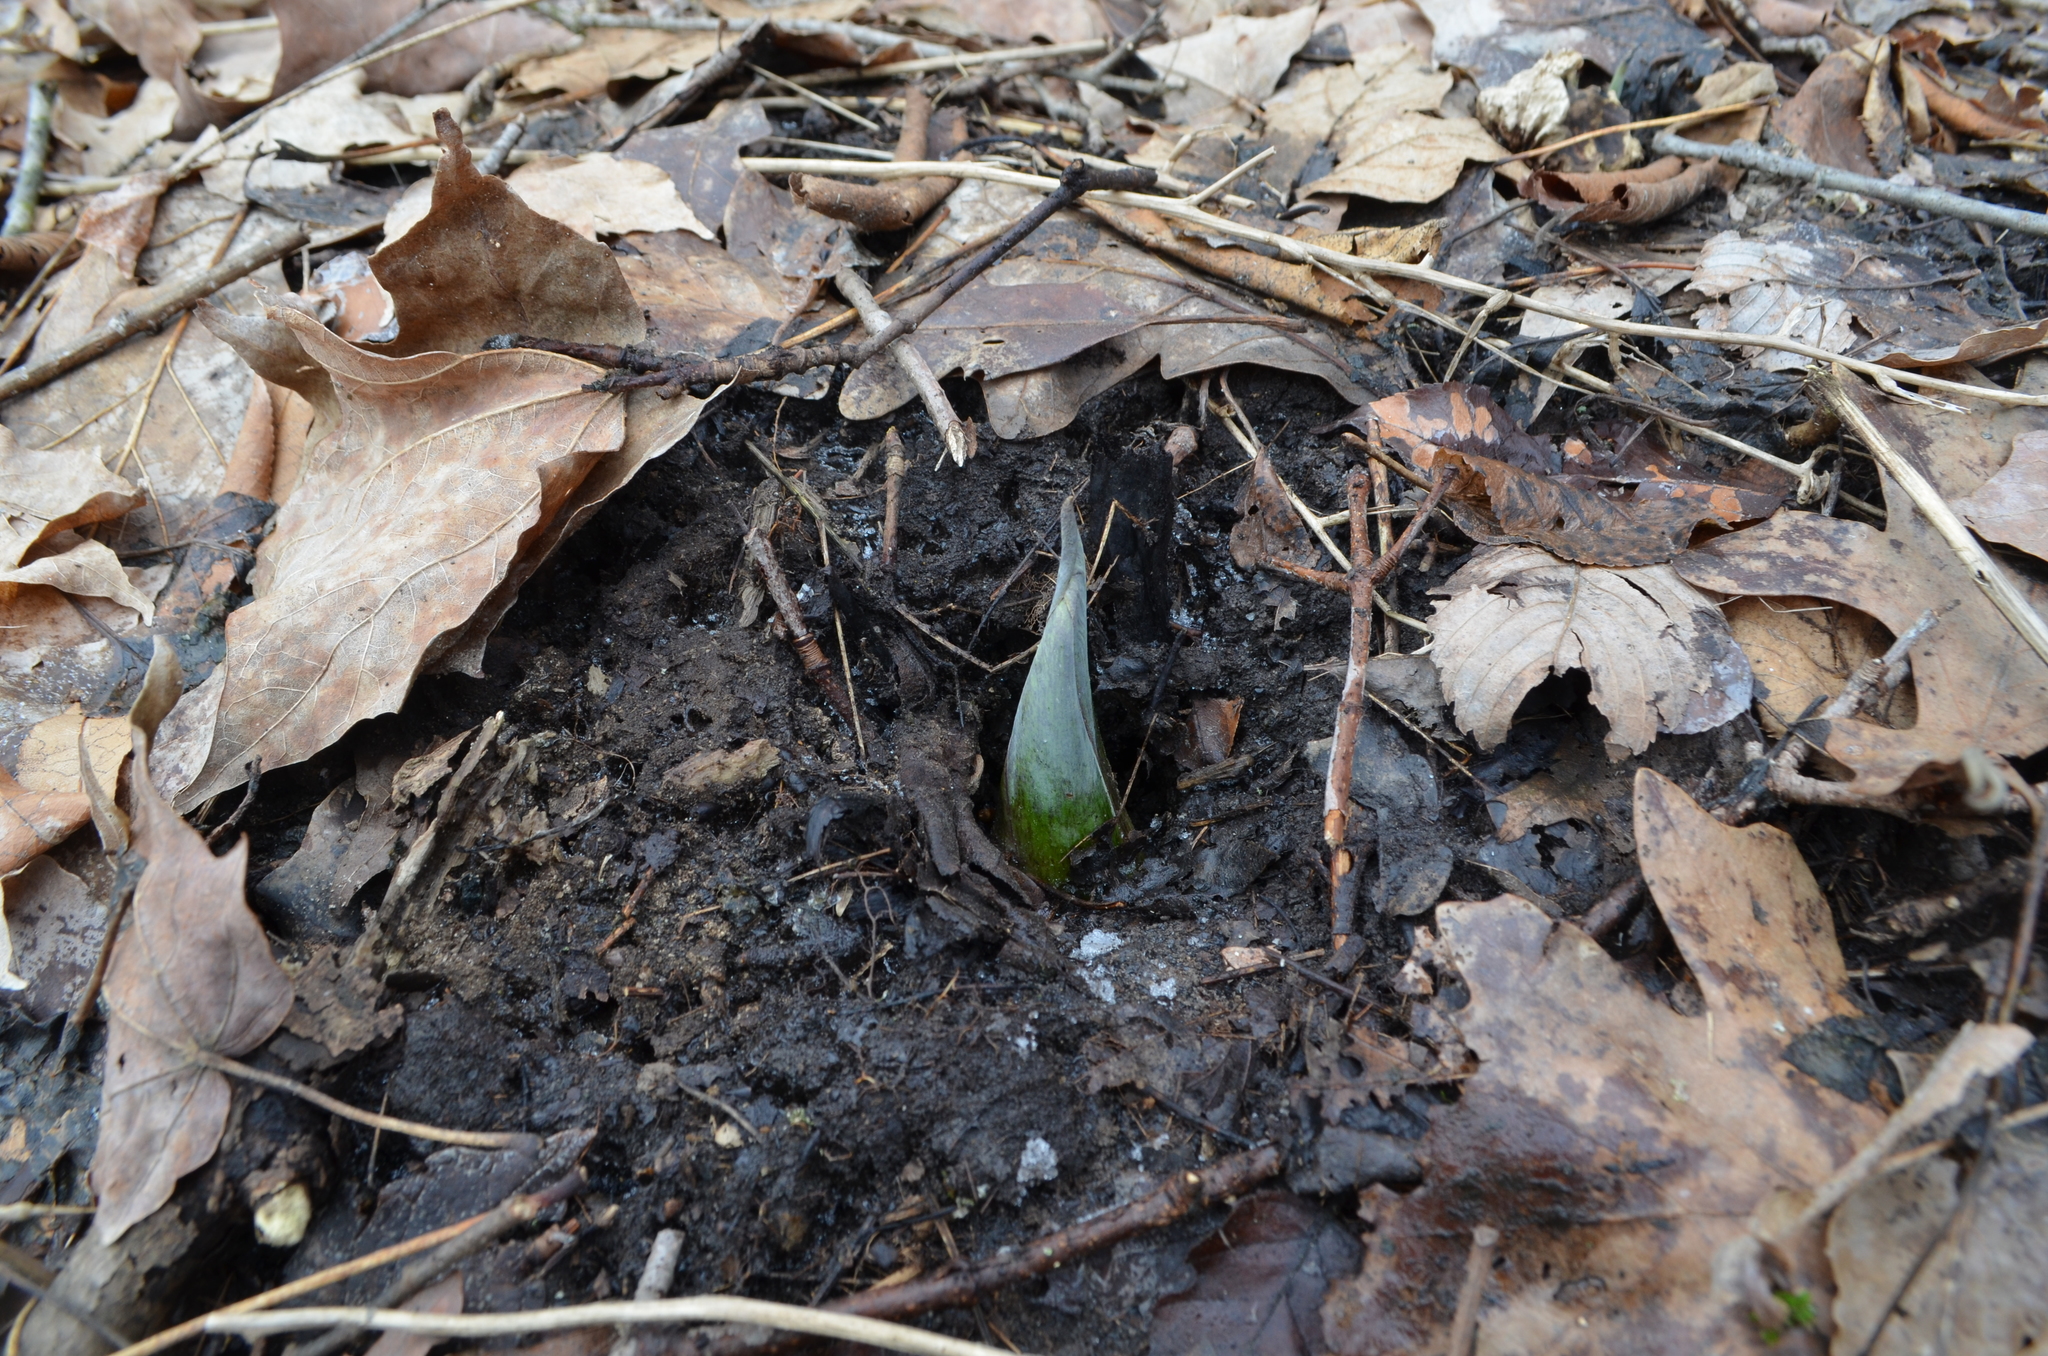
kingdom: Plantae
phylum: Tracheophyta
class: Liliopsida
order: Alismatales
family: Araceae
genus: Symplocarpus
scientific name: Symplocarpus foetidus
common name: Eastern skunk cabbage
